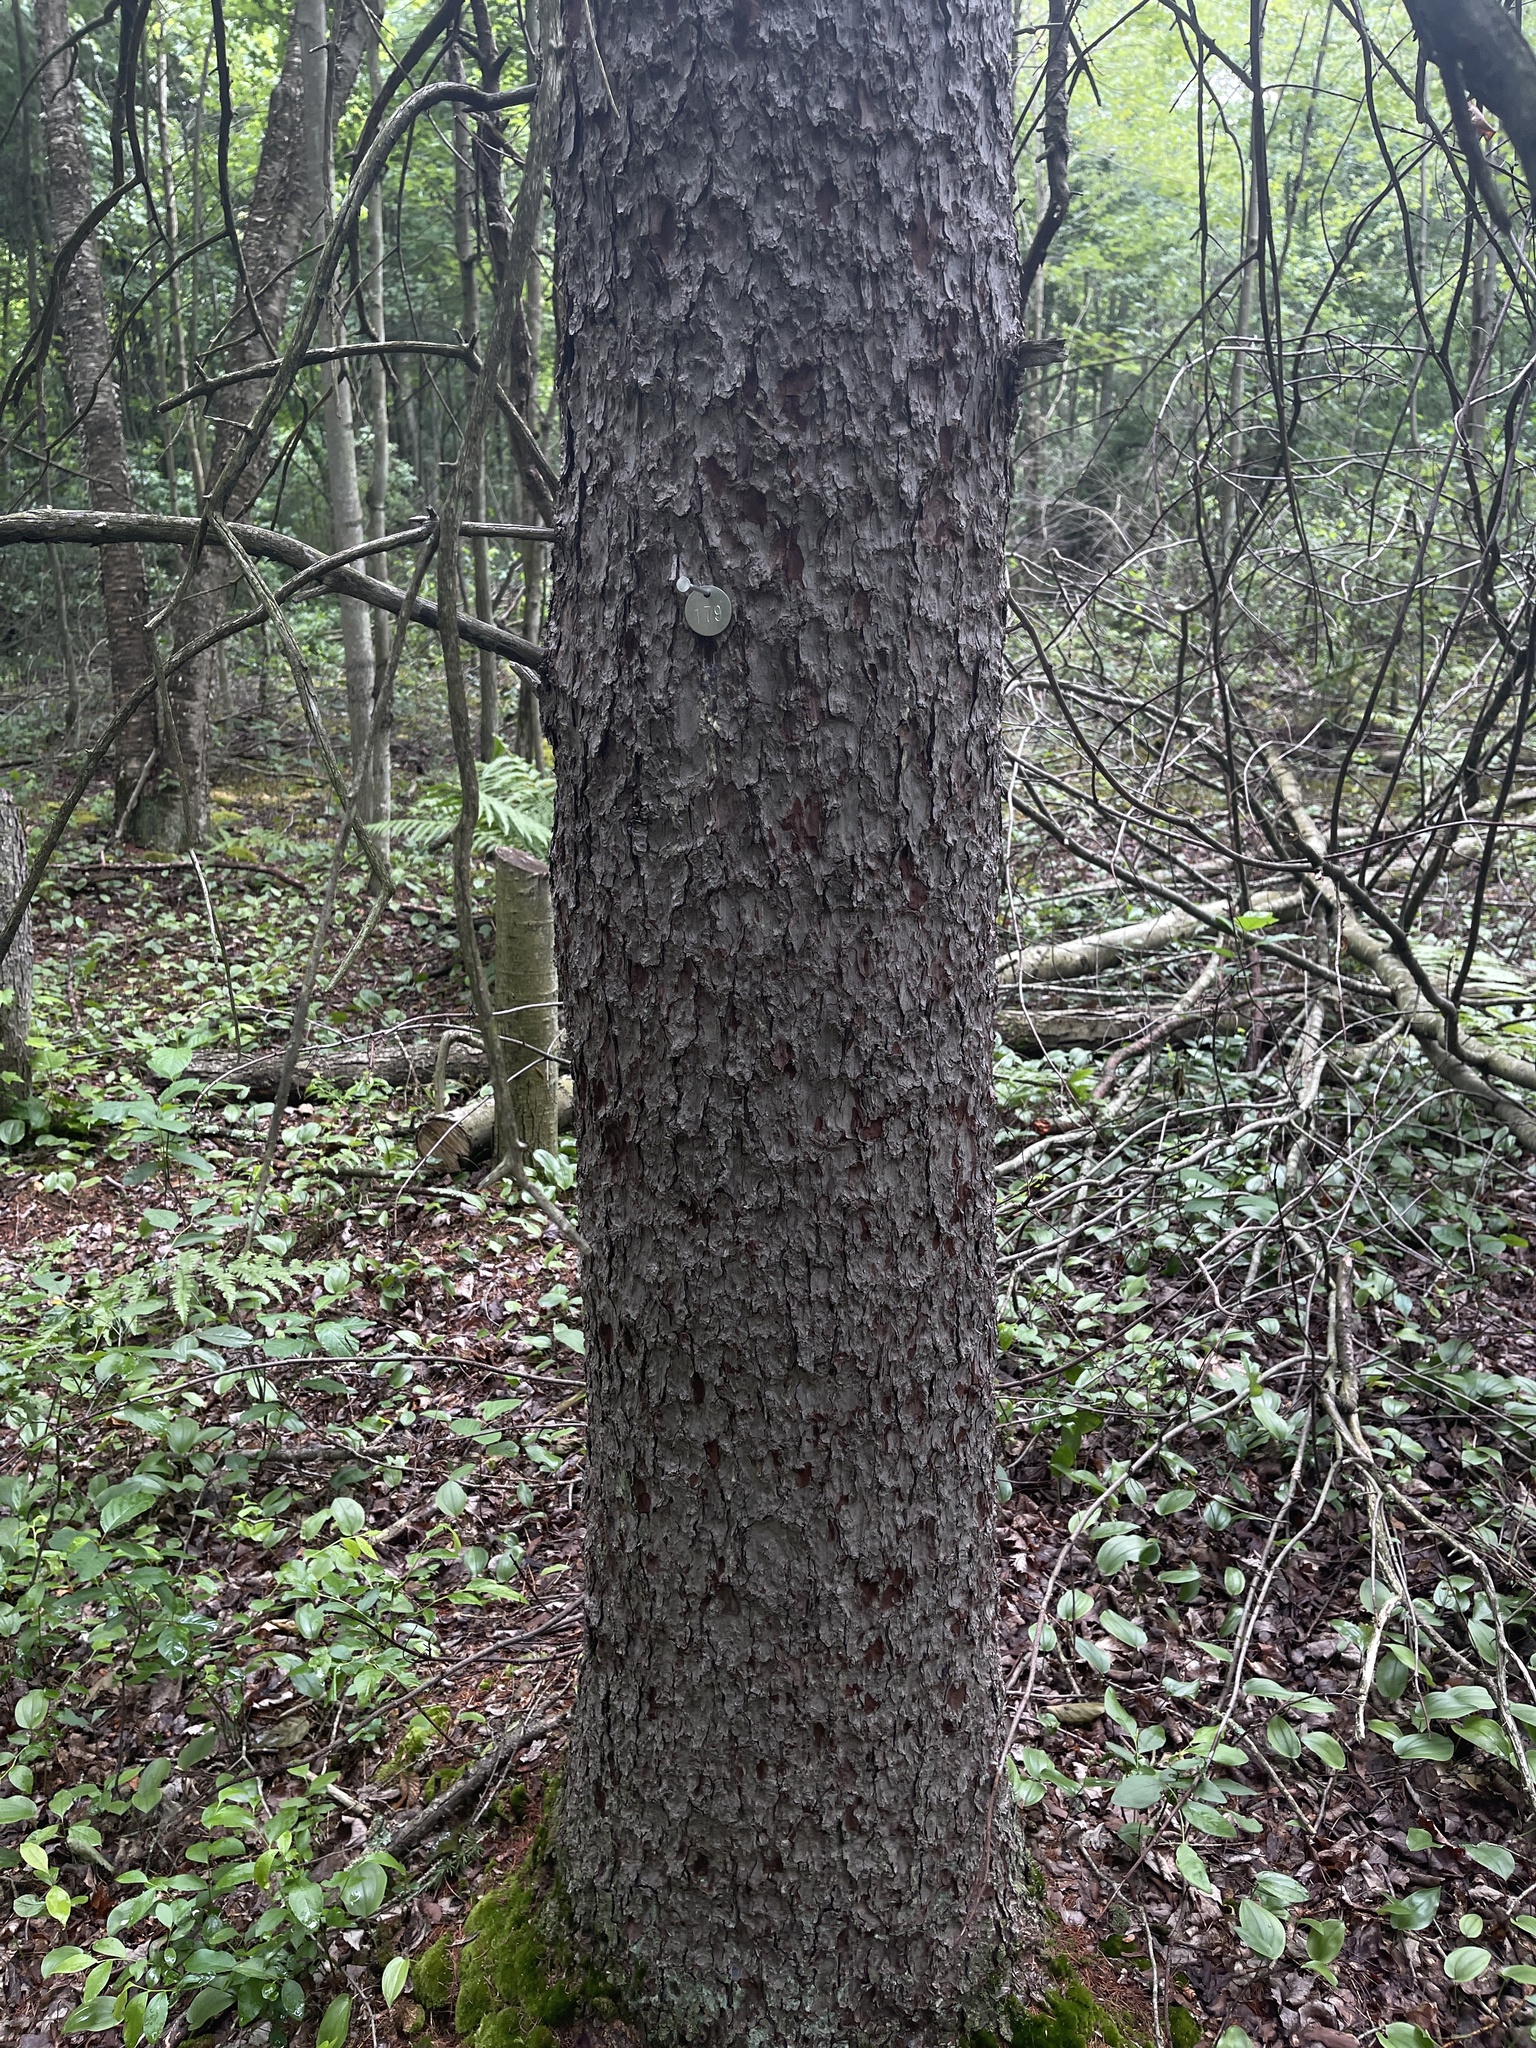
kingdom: Plantae
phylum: Tracheophyta
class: Pinopsida
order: Pinales
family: Pinaceae
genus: Larix
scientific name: Larix laricina
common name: American larch
